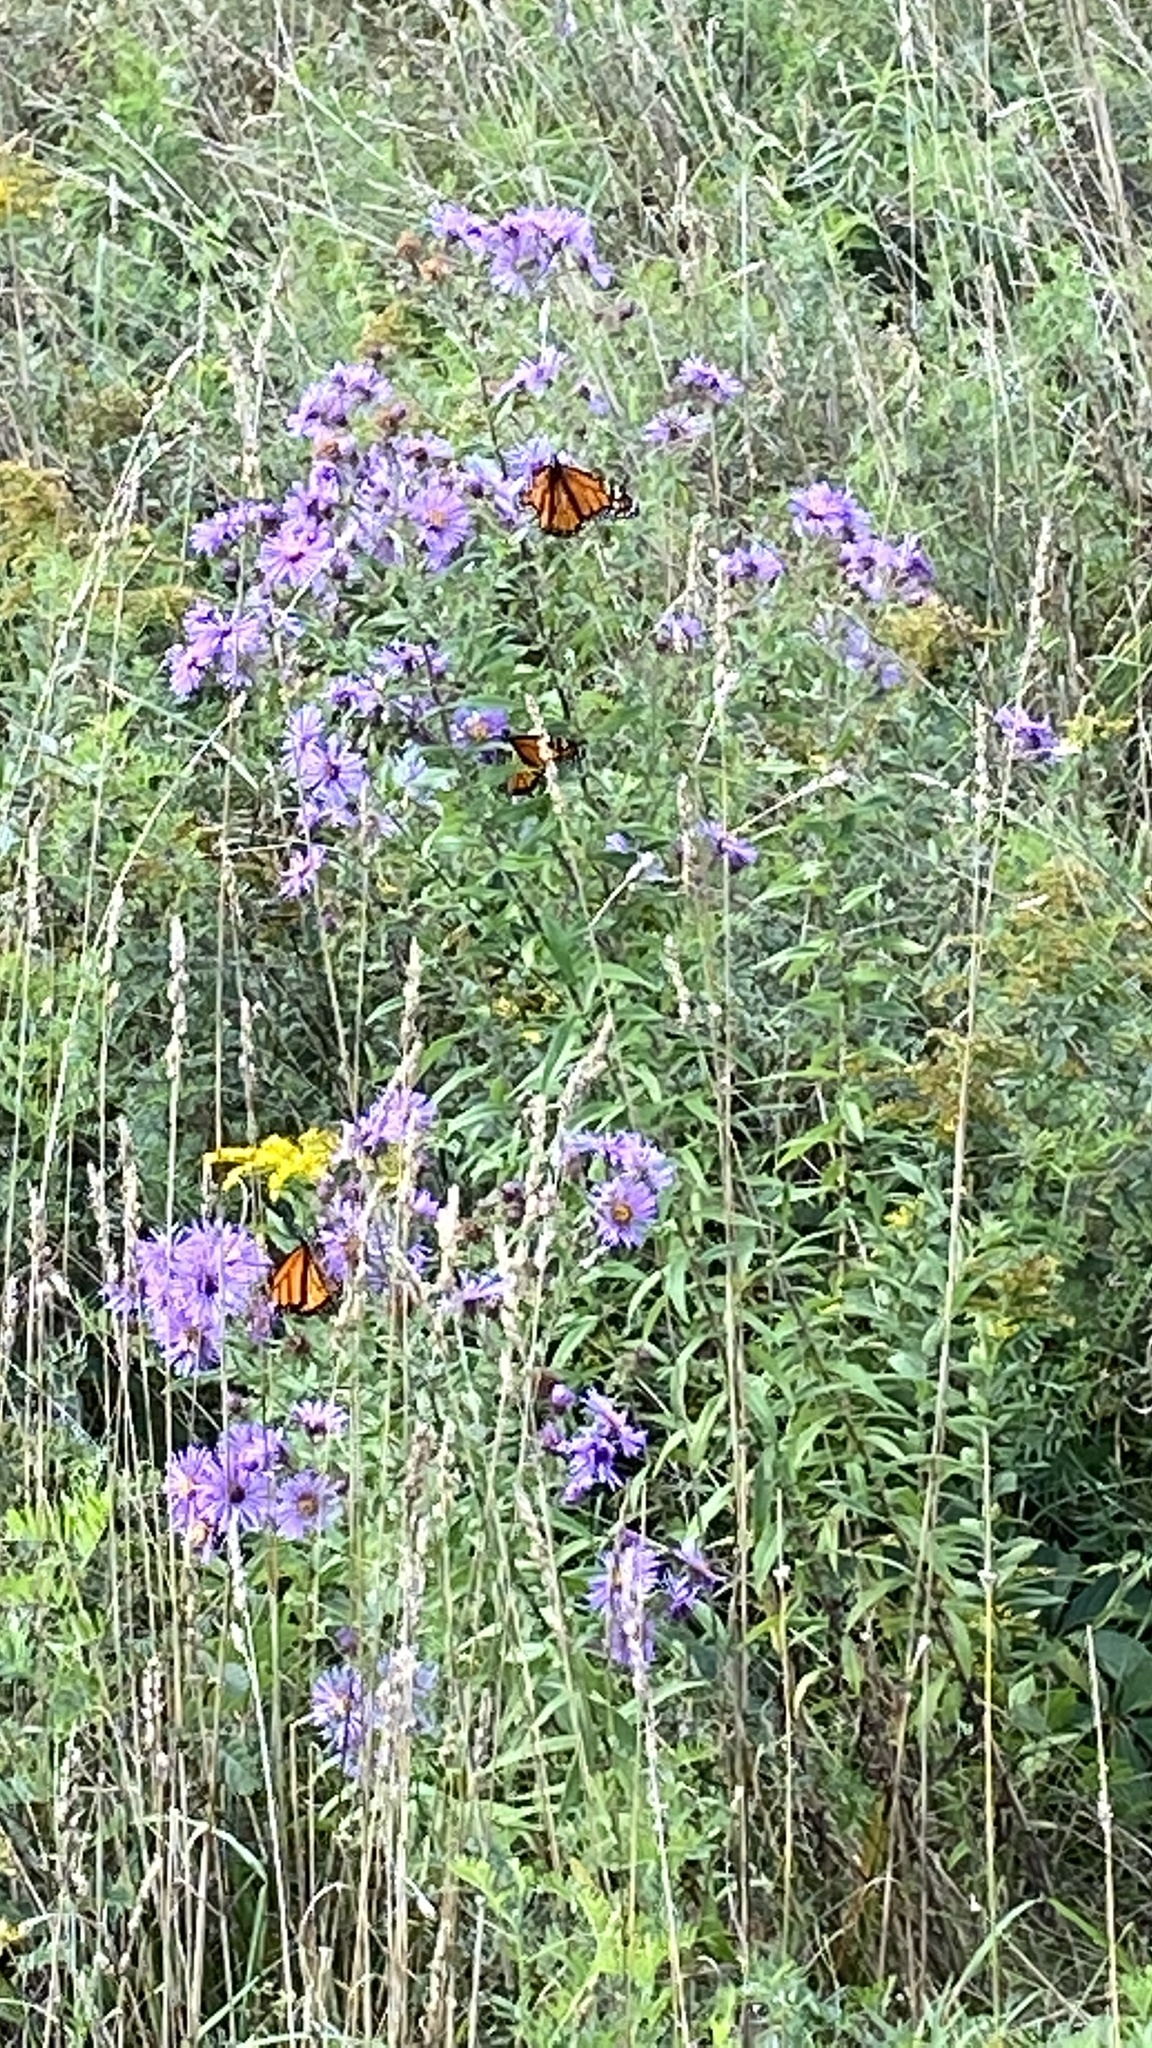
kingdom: Animalia
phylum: Arthropoda
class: Insecta
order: Lepidoptera
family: Nymphalidae
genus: Danaus
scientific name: Danaus plexippus
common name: Monarch
